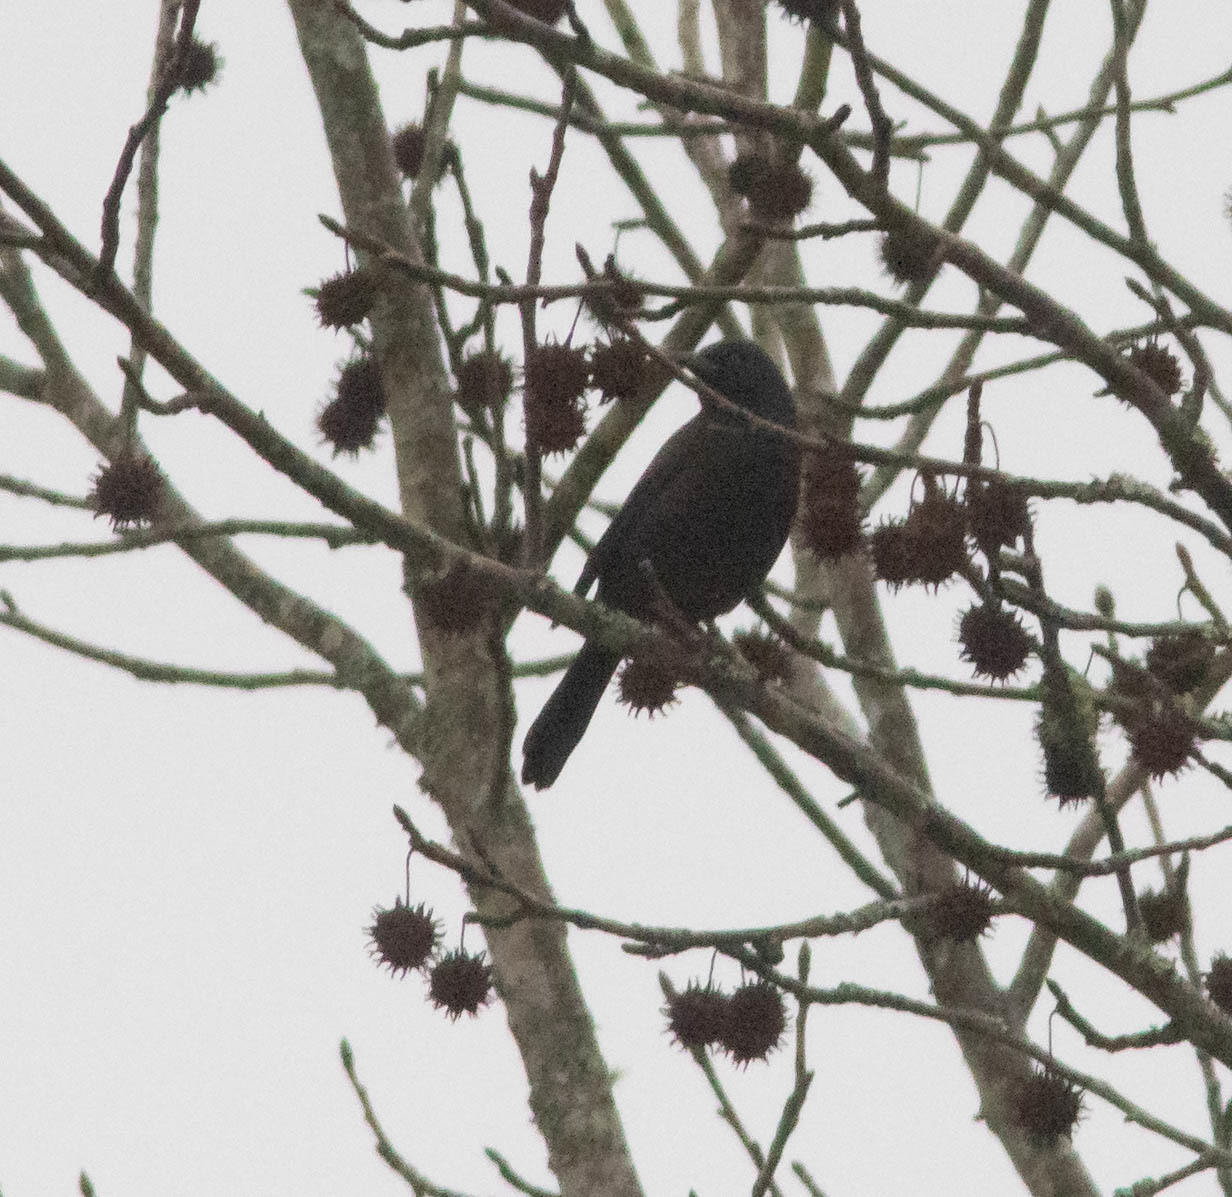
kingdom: Animalia
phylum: Chordata
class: Aves
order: Passeriformes
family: Icteridae
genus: Euphagus
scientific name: Euphagus carolinus
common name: Rusty blackbird
